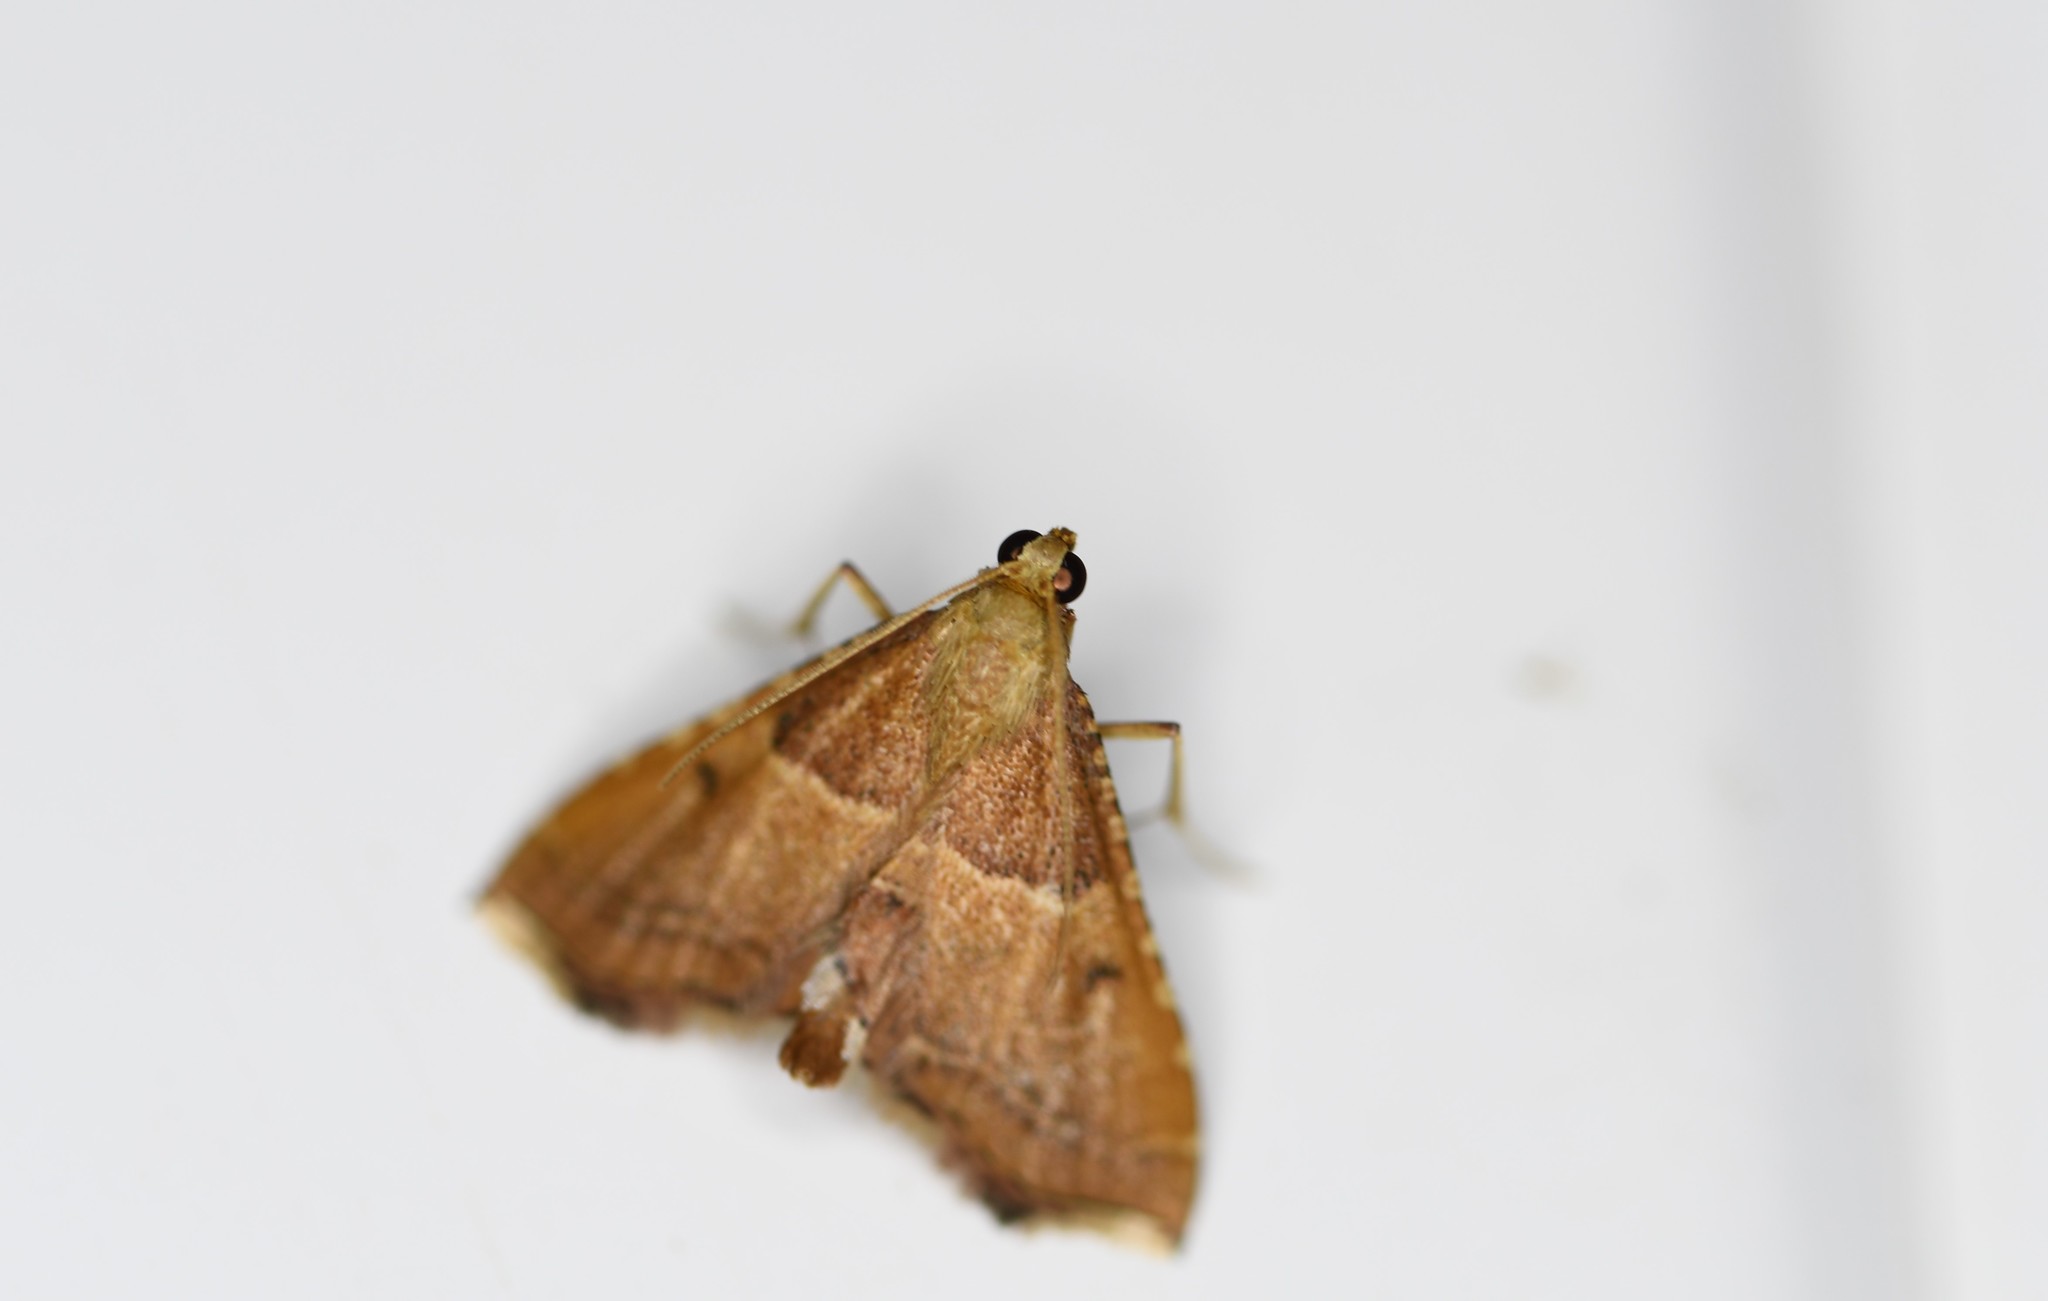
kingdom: Animalia
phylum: Arthropoda
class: Insecta
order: Lepidoptera
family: Pyralidae
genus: Endotricha
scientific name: Endotricha flammealis
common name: Rosy tabby
